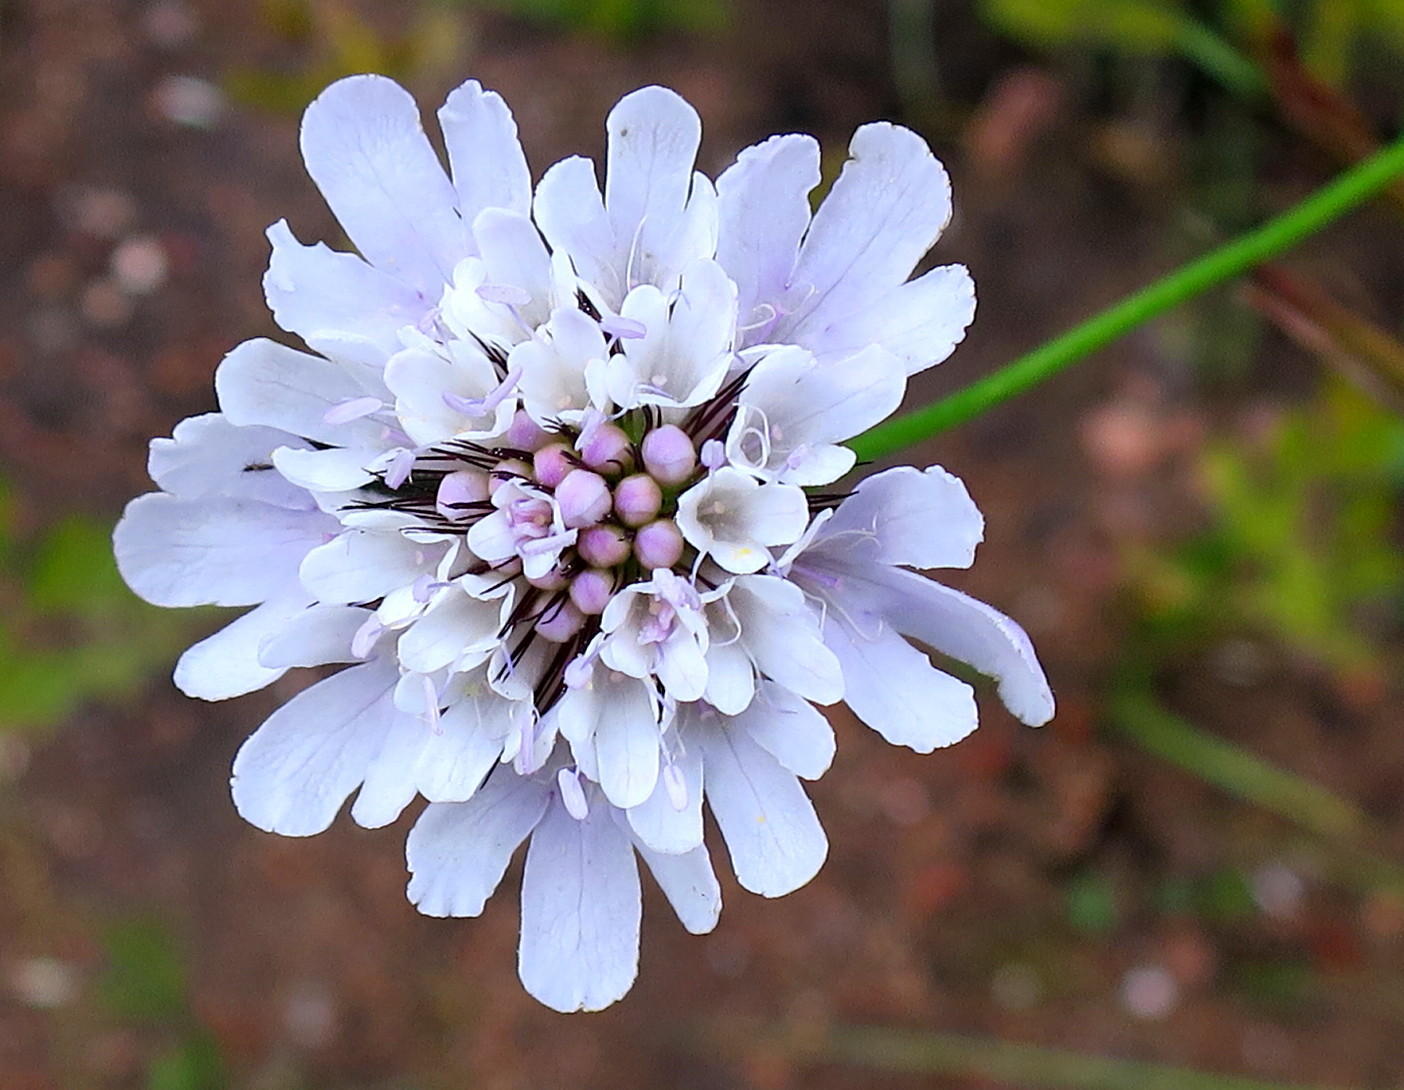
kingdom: Plantae
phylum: Tracheophyta
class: Magnoliopsida
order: Dipsacales
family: Caprifoliaceae
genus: Scabiosa
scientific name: Scabiosa columbaria
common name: Small scabious
